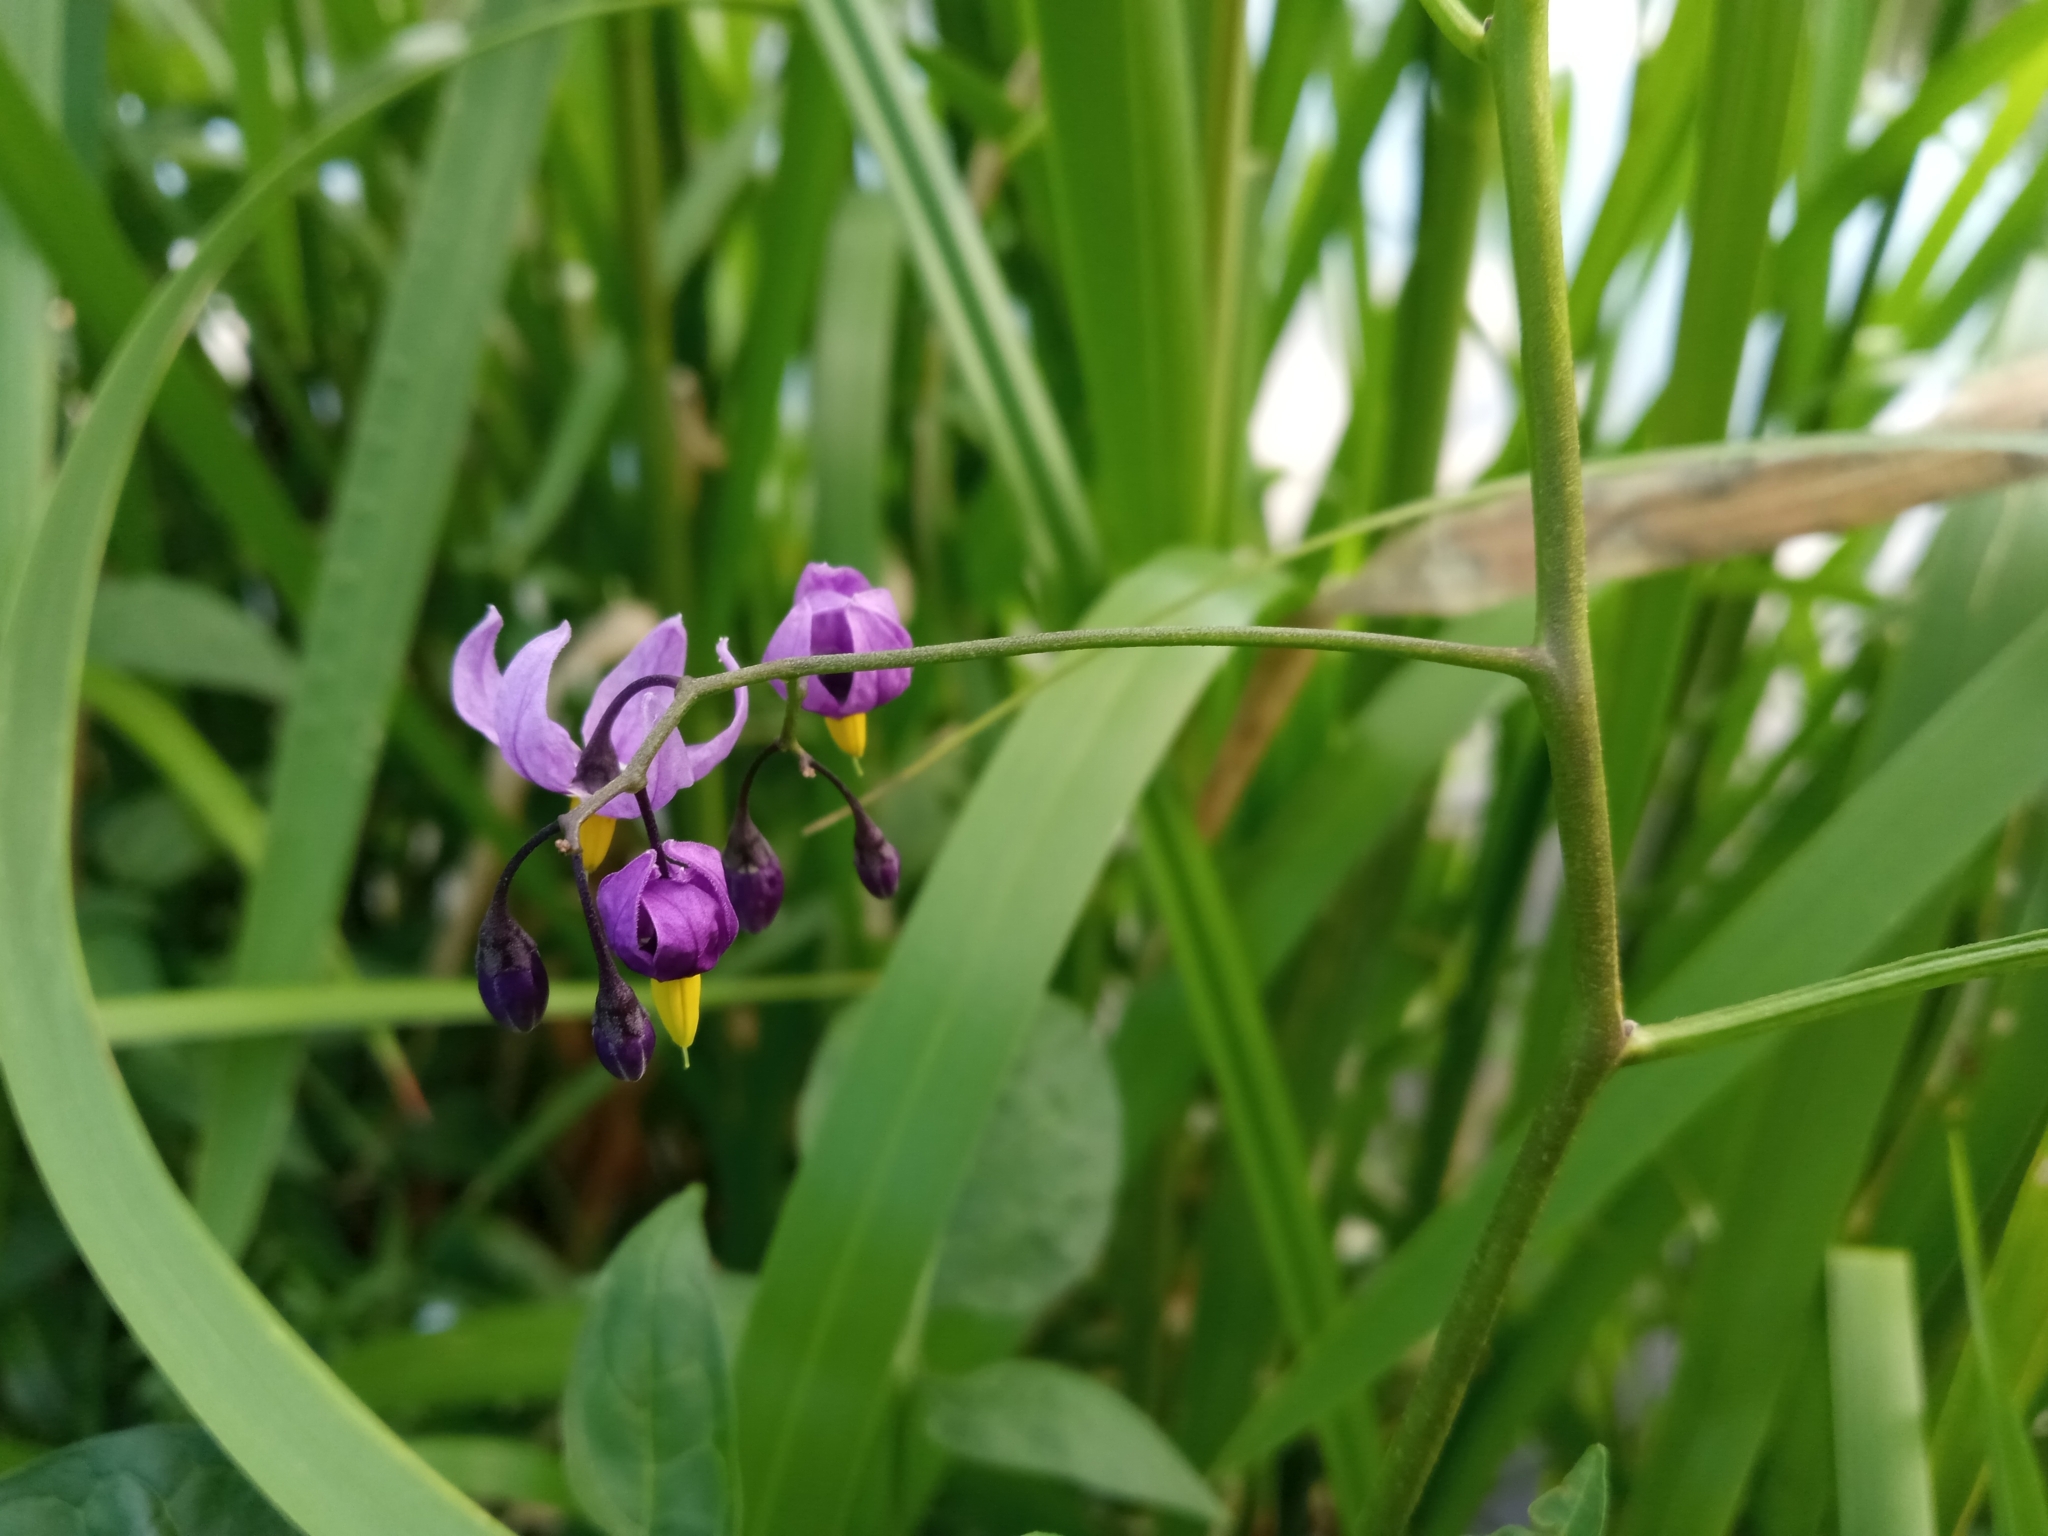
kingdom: Plantae
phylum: Tracheophyta
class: Magnoliopsida
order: Solanales
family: Solanaceae
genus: Solanum
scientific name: Solanum dulcamara
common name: Climbing nightshade
